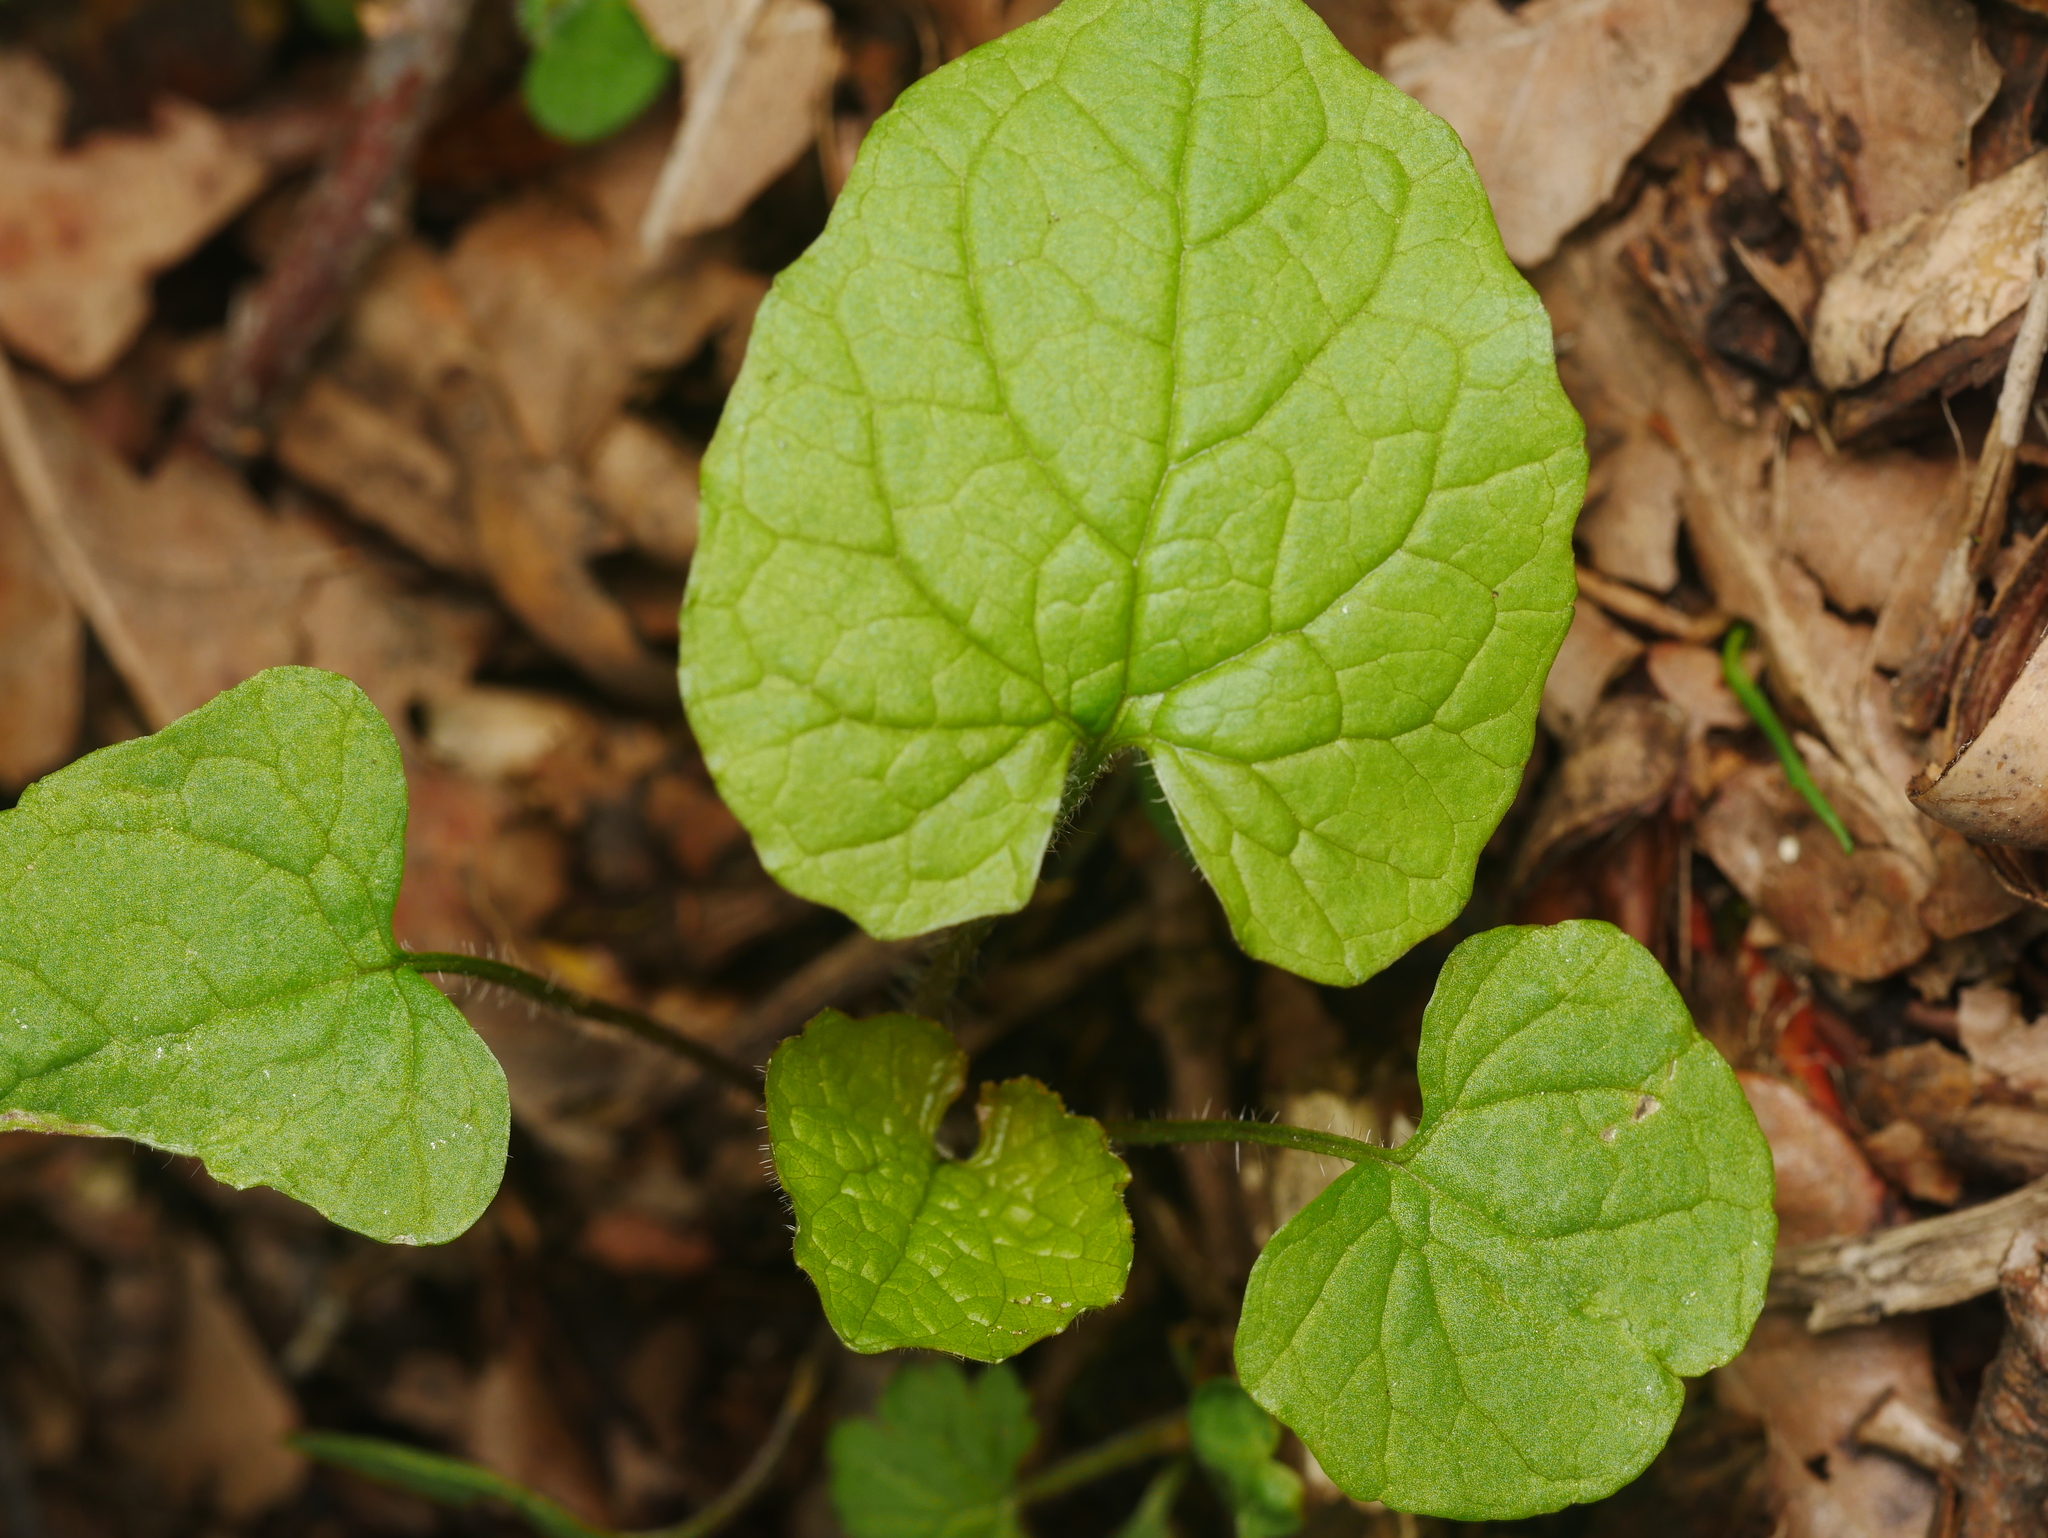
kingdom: Plantae
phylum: Tracheophyta
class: Magnoliopsida
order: Brassicales
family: Brassicaceae
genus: Alliaria
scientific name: Alliaria petiolata
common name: Garlic mustard
